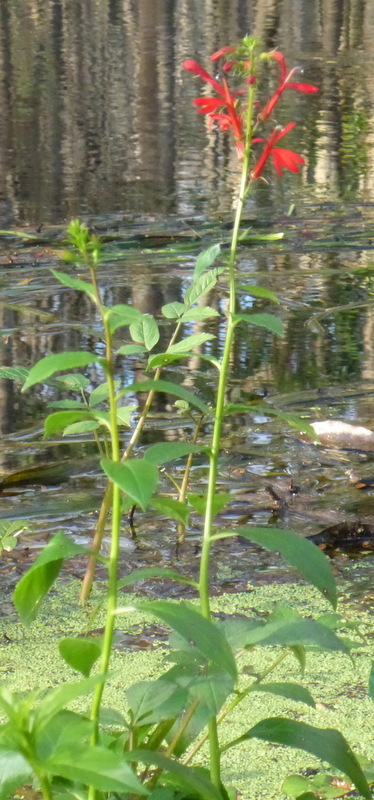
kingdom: Plantae
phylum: Tracheophyta
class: Magnoliopsida
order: Asterales
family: Campanulaceae
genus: Lobelia
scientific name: Lobelia cardinalis
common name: Cardinal flower
